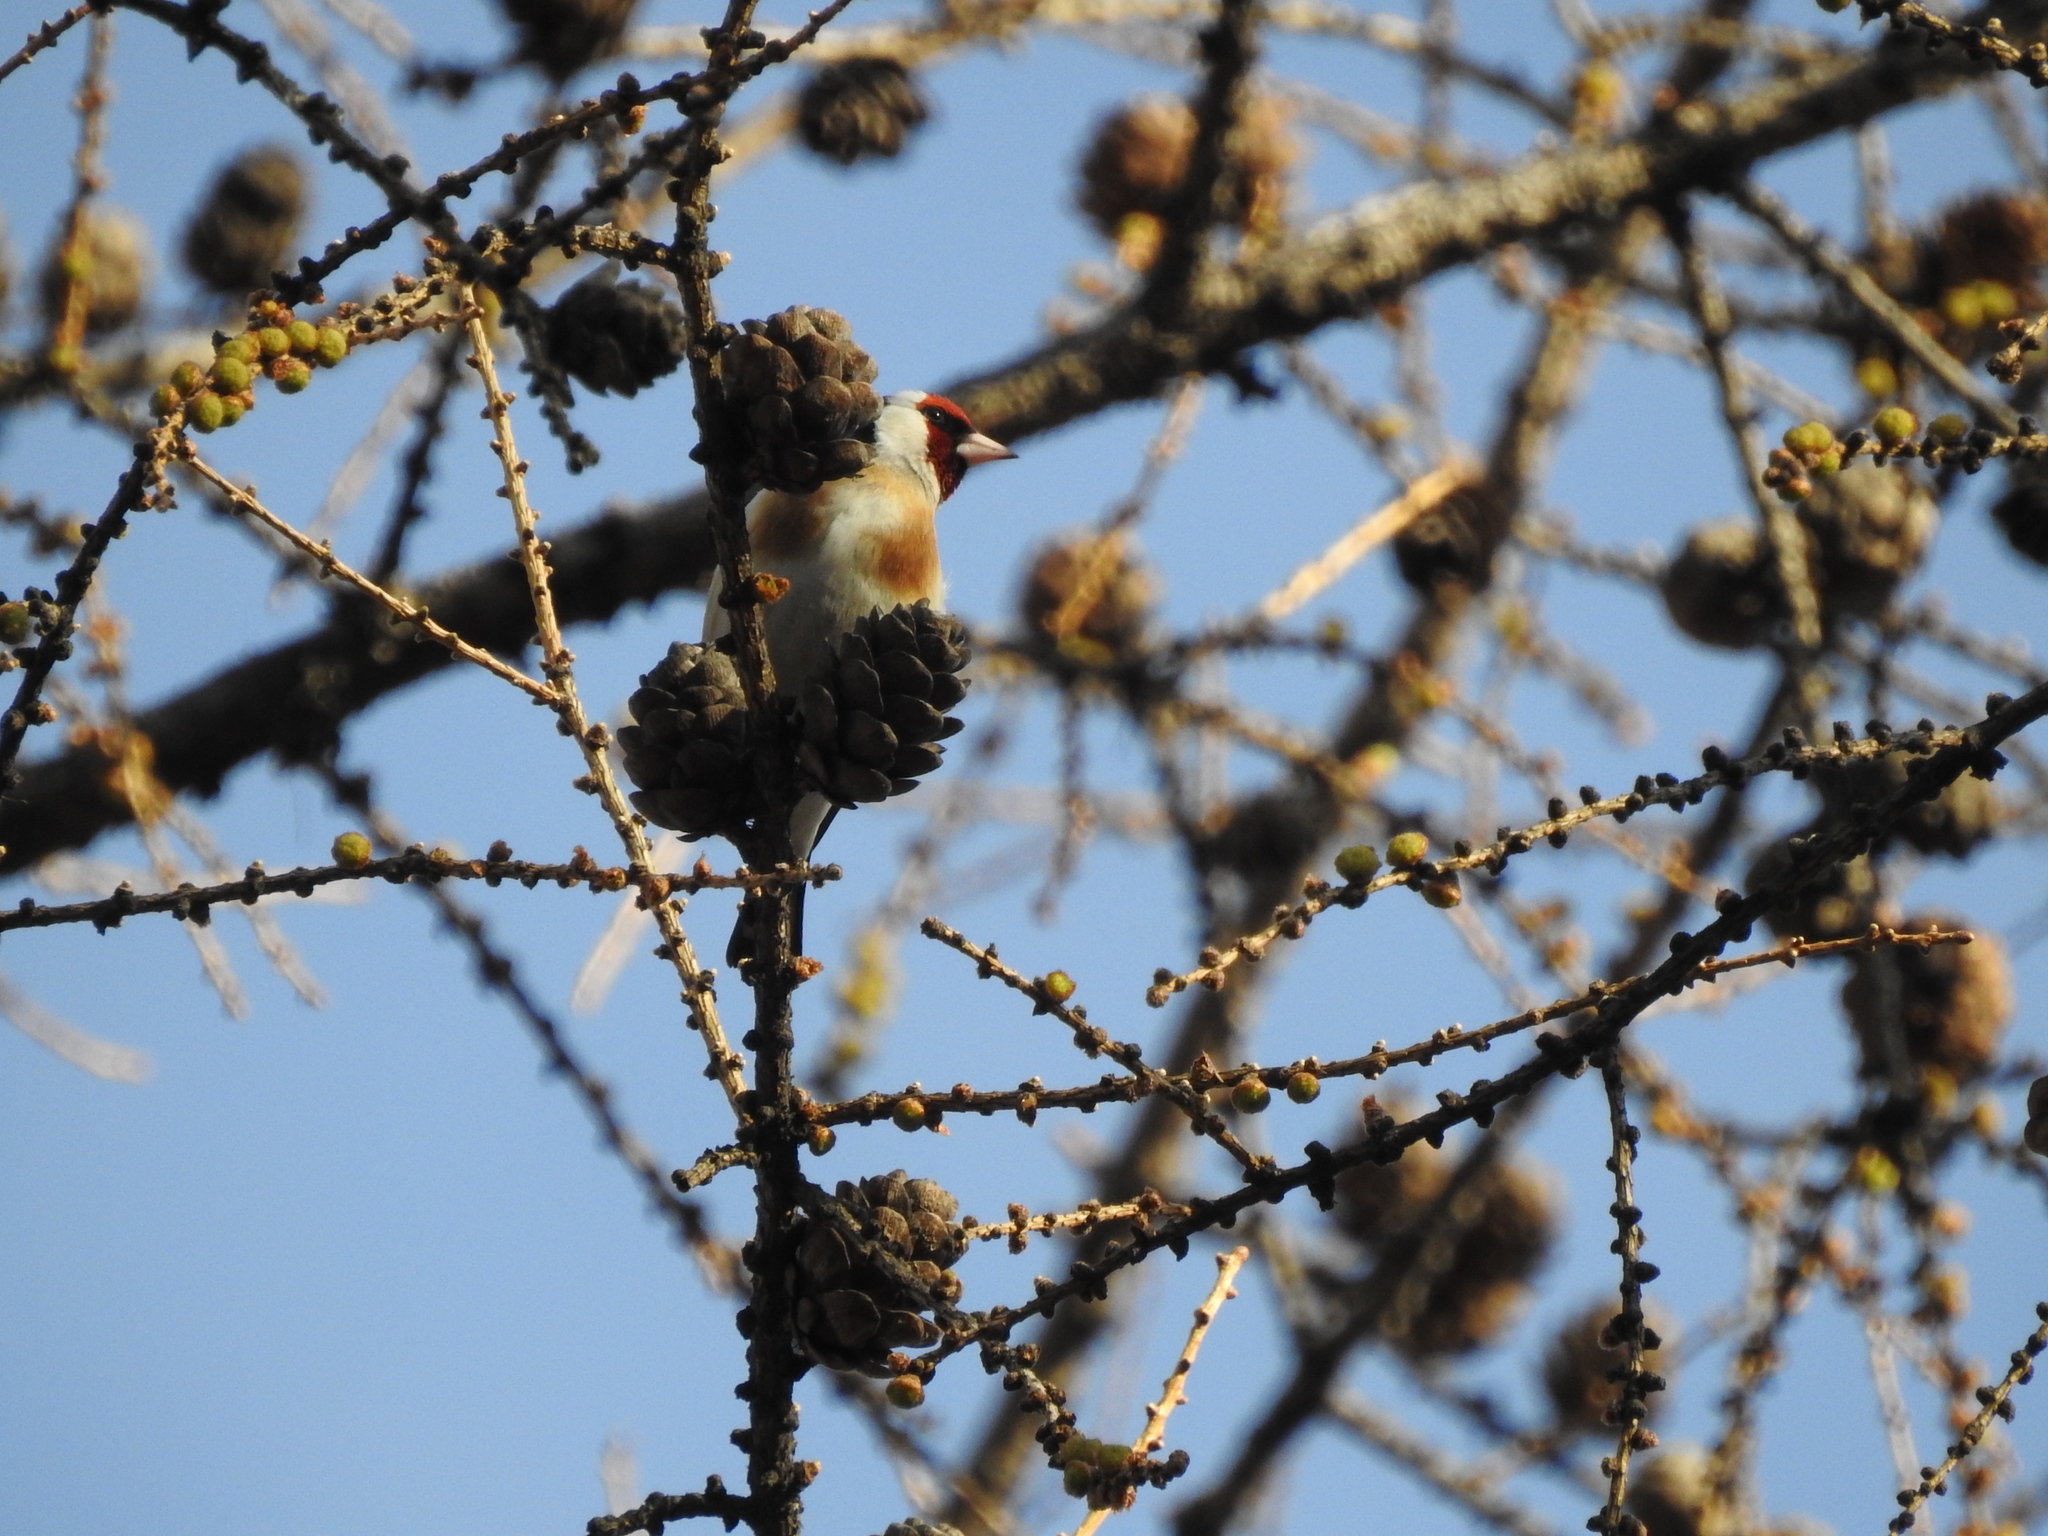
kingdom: Animalia
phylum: Chordata
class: Aves
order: Passeriformes
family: Fringillidae
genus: Carduelis
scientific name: Carduelis carduelis
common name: European goldfinch
